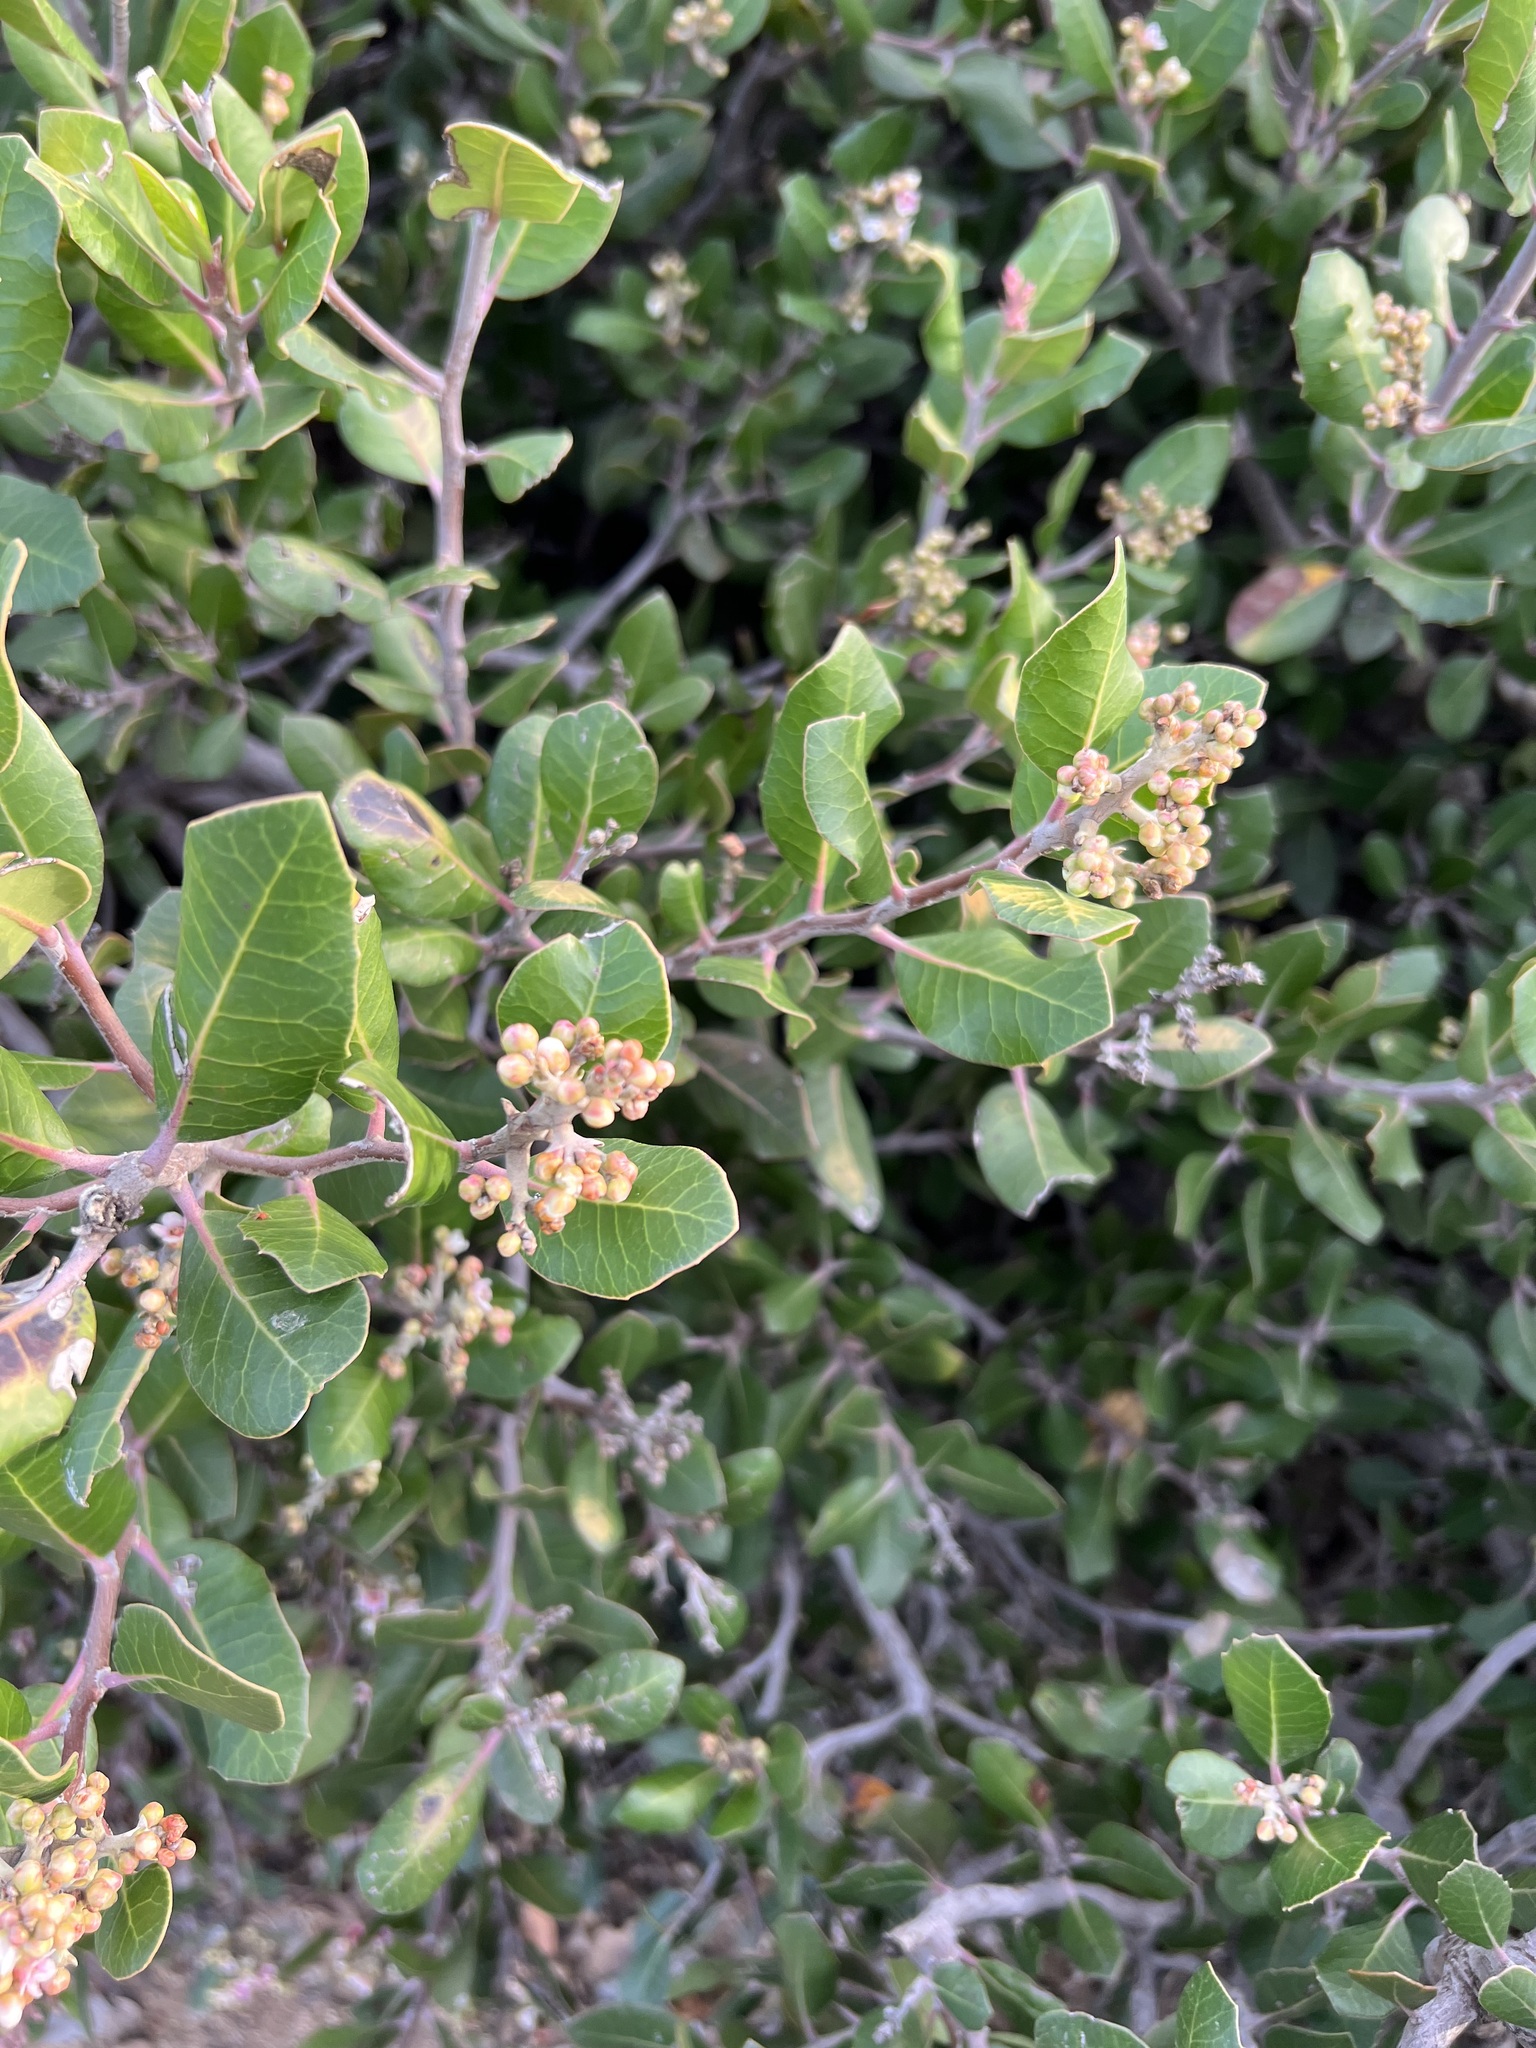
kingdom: Plantae
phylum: Tracheophyta
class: Magnoliopsida
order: Sapindales
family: Anacardiaceae
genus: Rhus
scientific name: Rhus integrifolia
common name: Lemonade sumac
